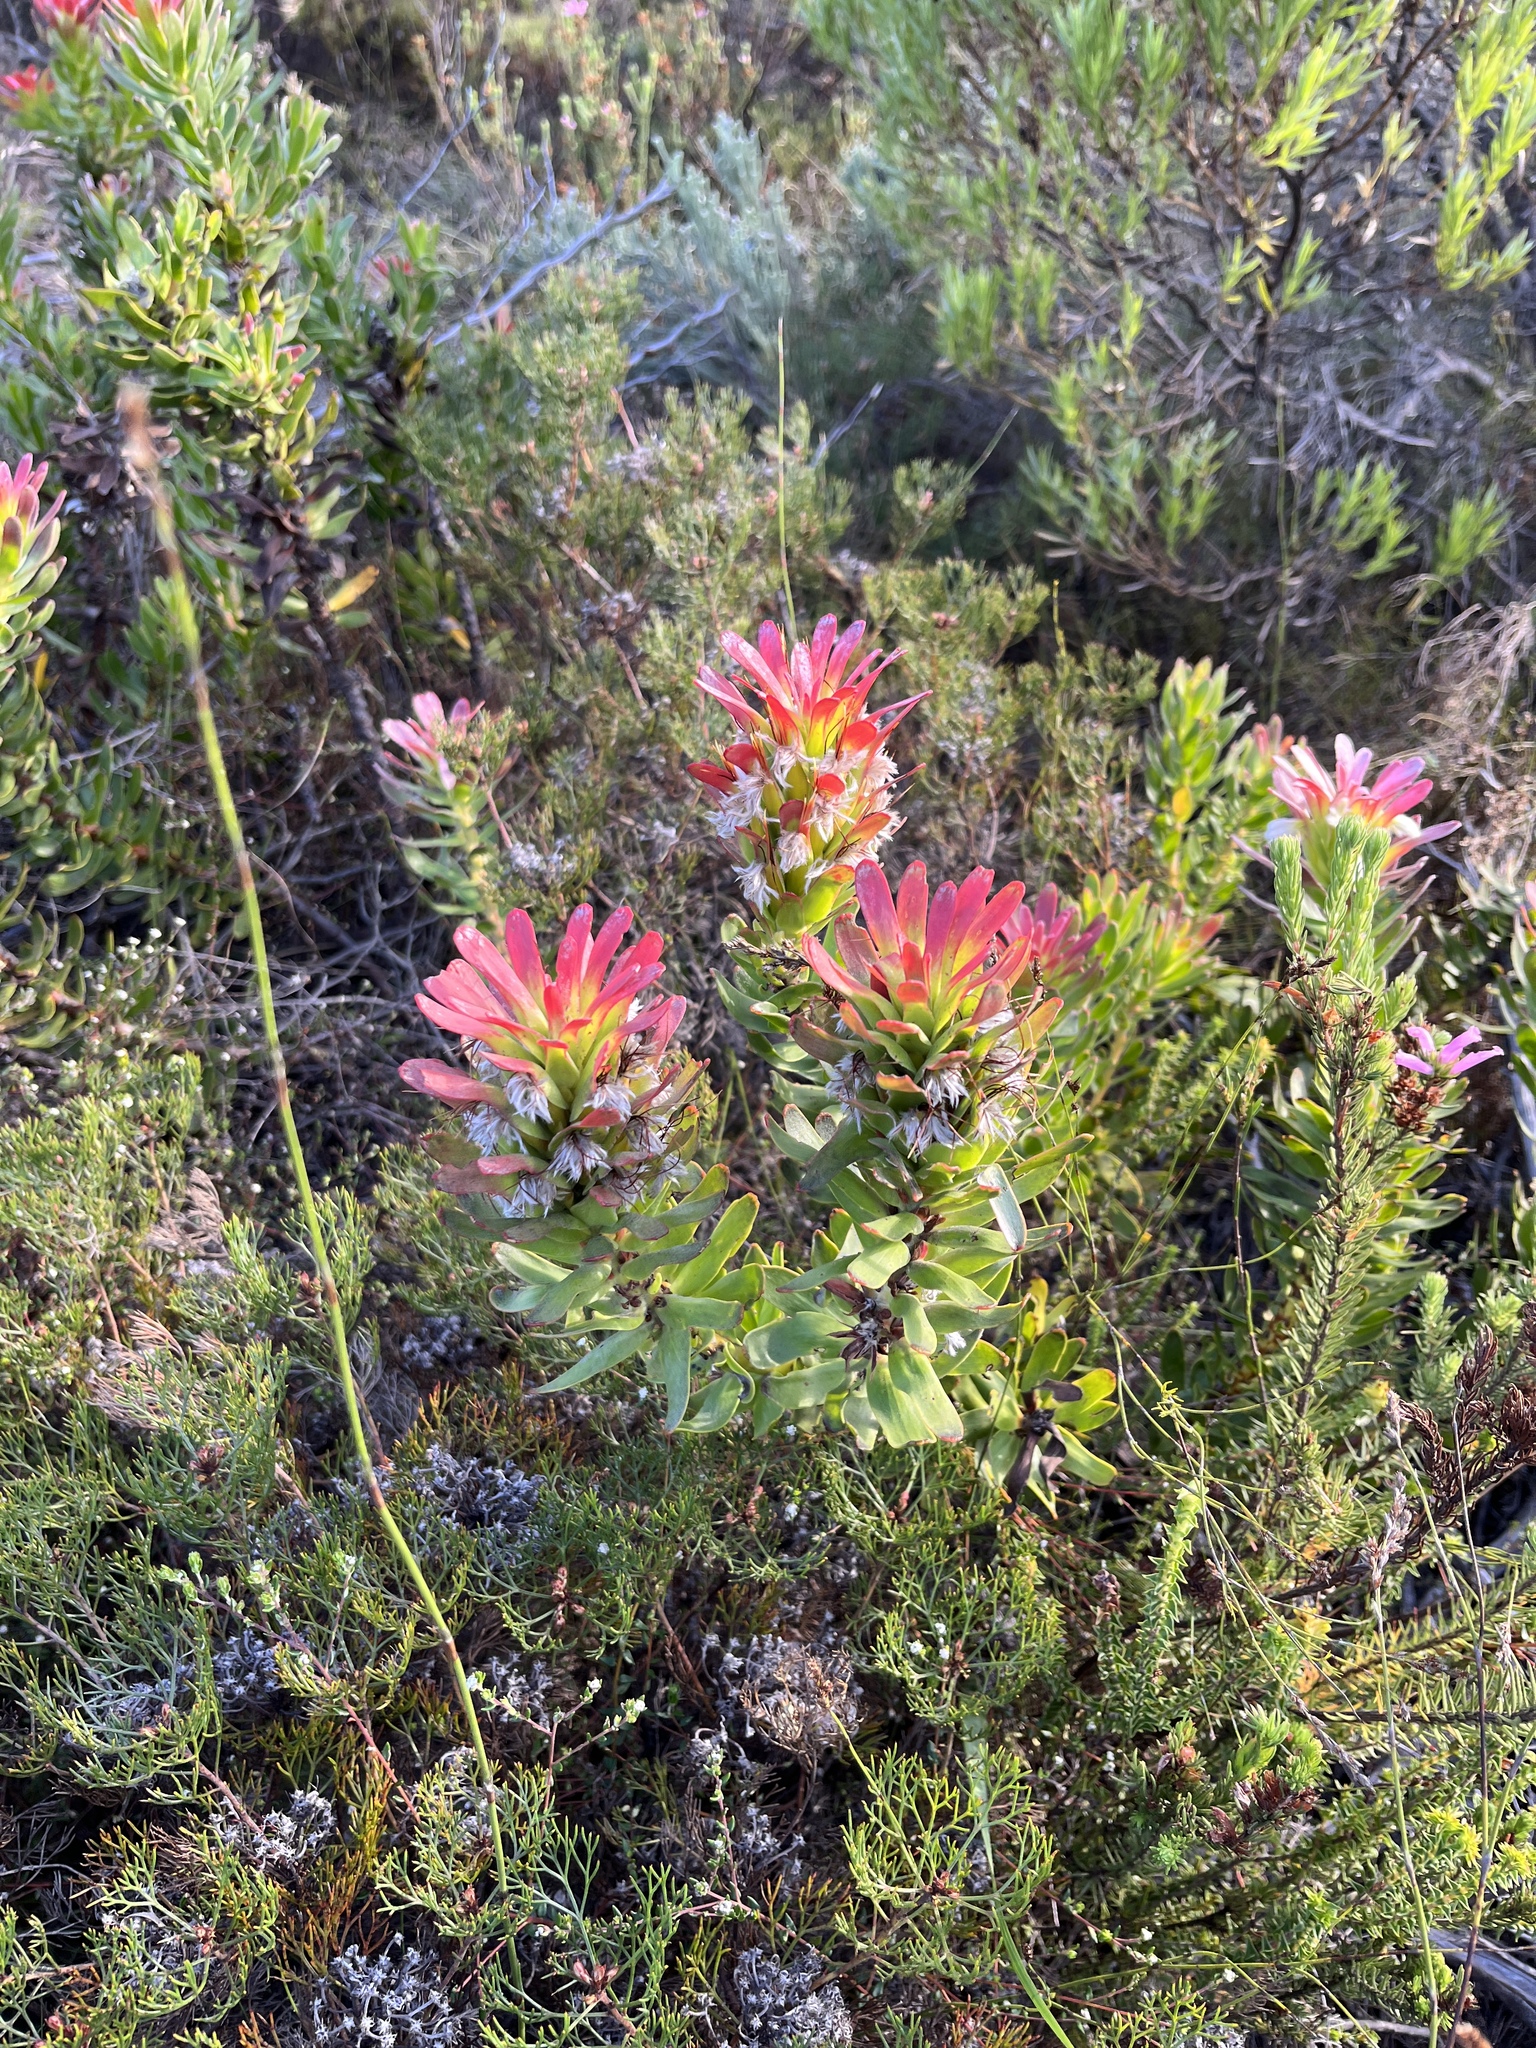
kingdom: Plantae
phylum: Tracheophyta
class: Magnoliopsida
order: Proteales
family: Proteaceae
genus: Mimetes
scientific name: Mimetes cucullatus
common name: Common pagoda
